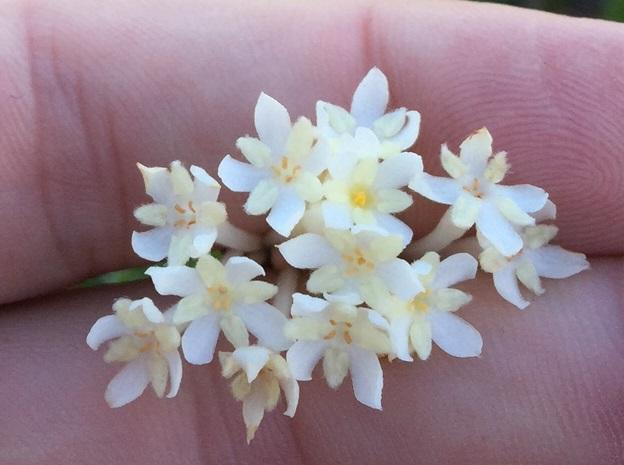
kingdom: Plantae
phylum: Tracheophyta
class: Magnoliopsida
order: Malvales
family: Thymelaeaceae
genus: Gnidia
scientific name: Gnidia pinifolia
